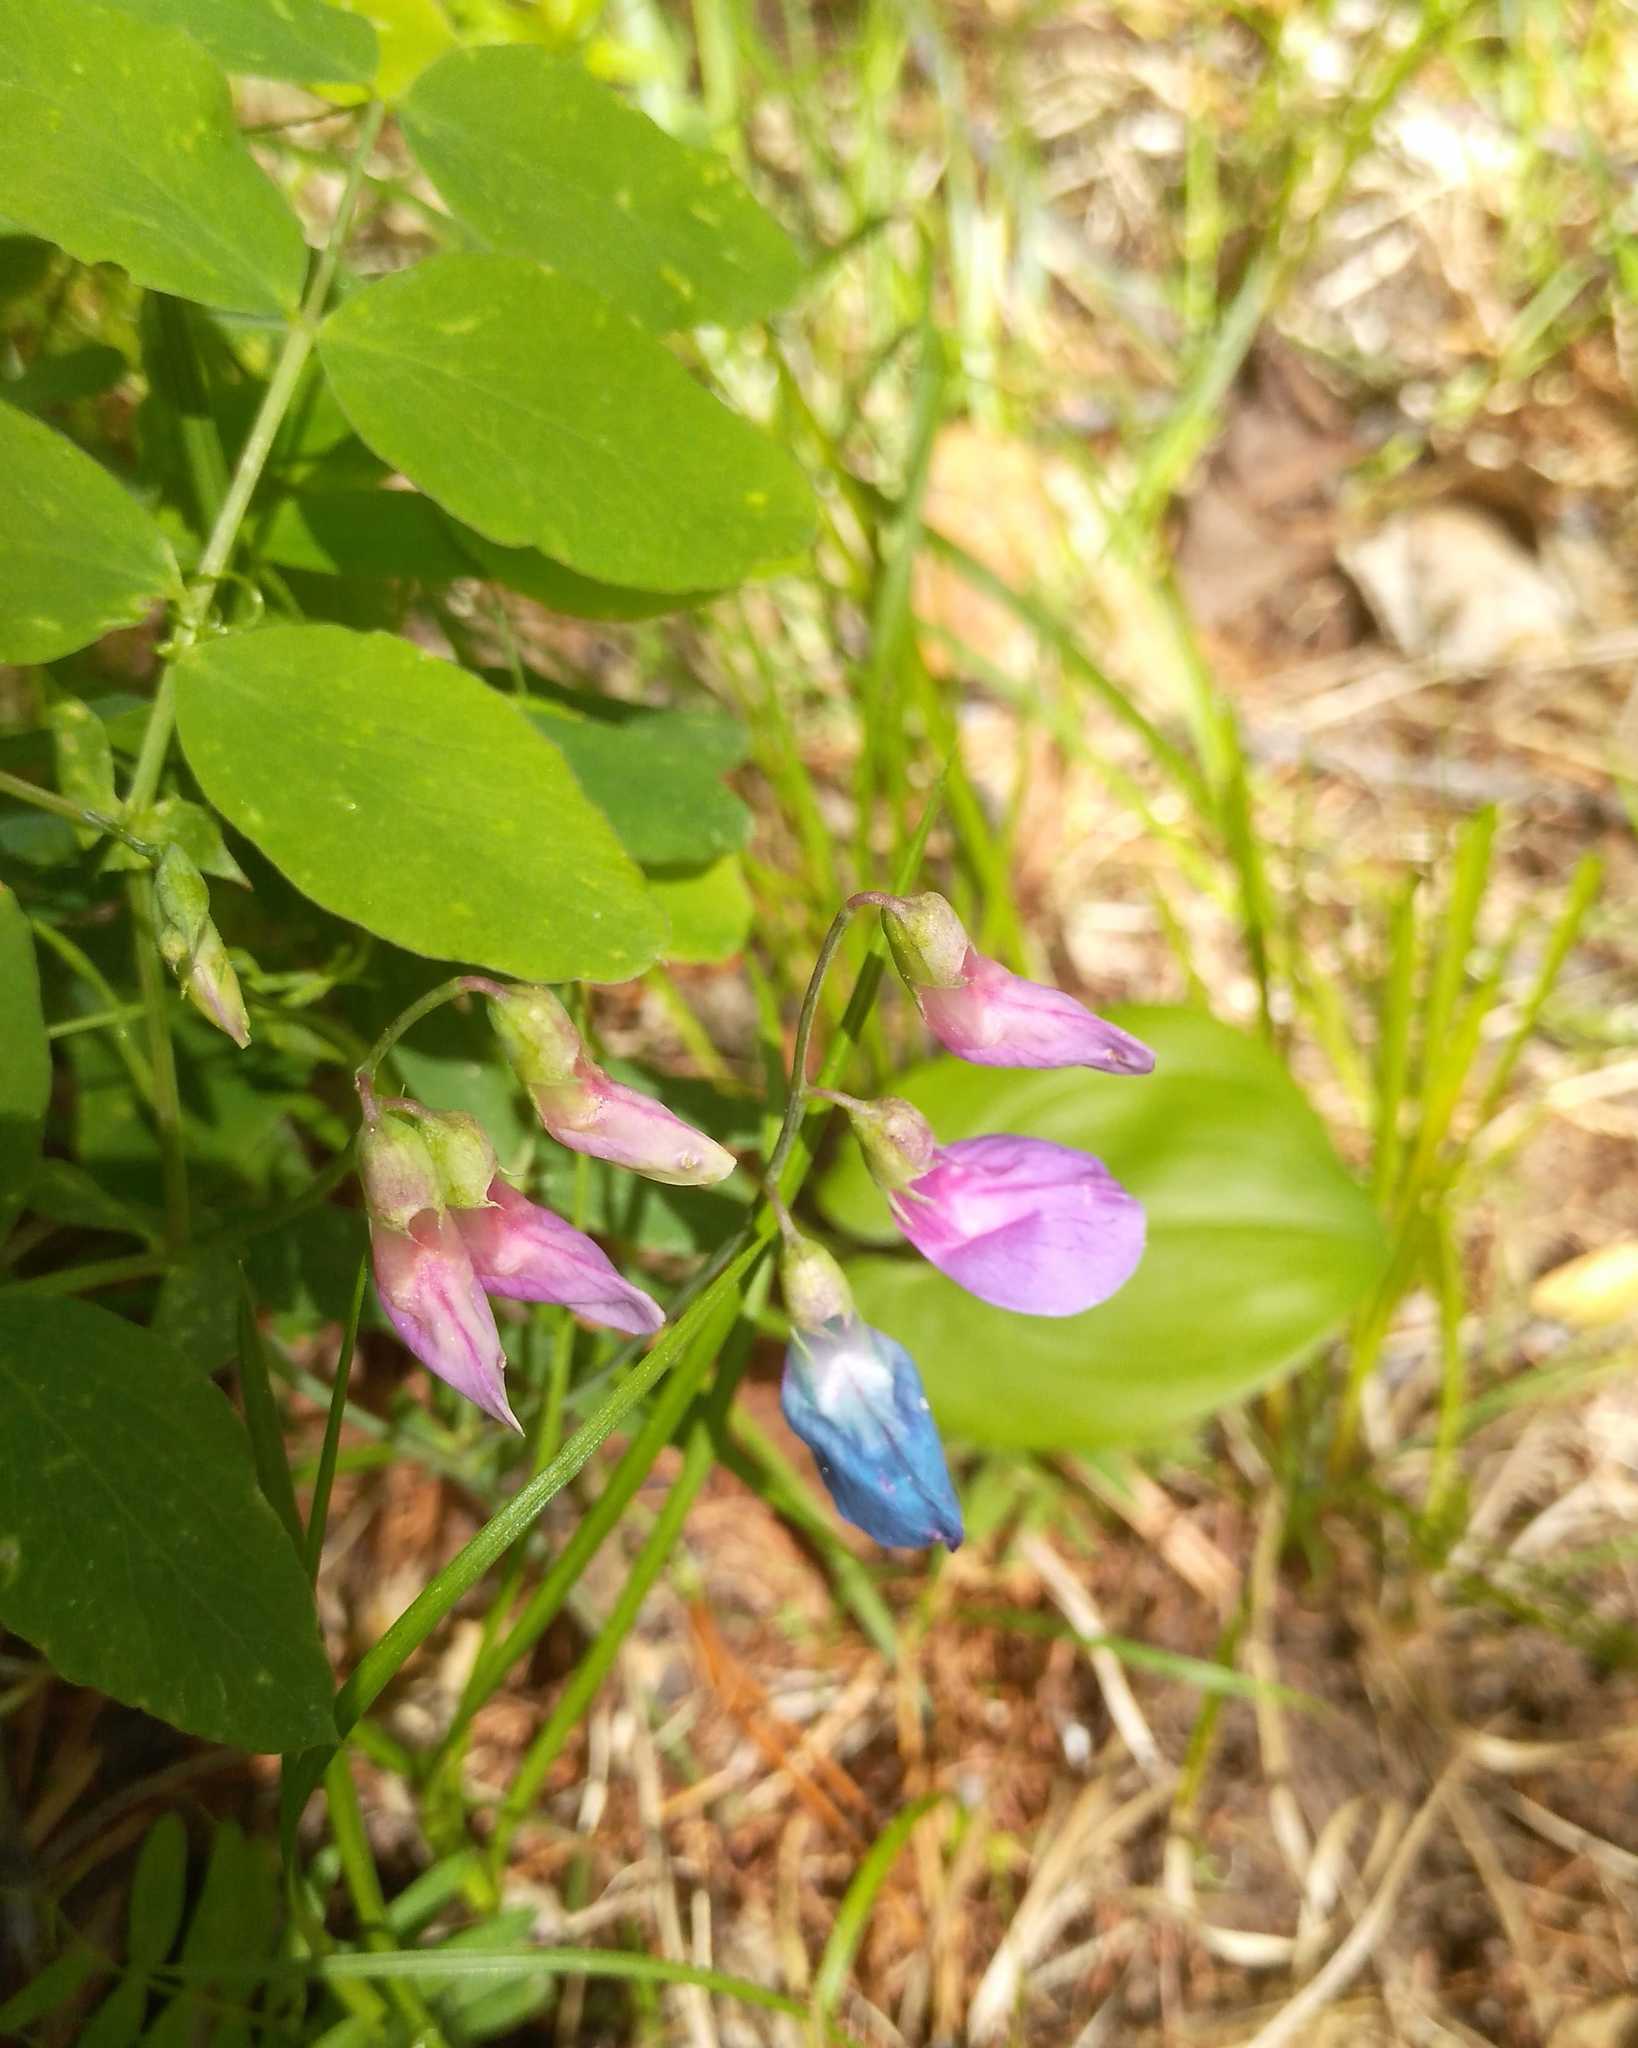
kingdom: Plantae
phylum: Tracheophyta
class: Magnoliopsida
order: Fabales
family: Fabaceae
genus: Lathyrus
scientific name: Lathyrus humilis
